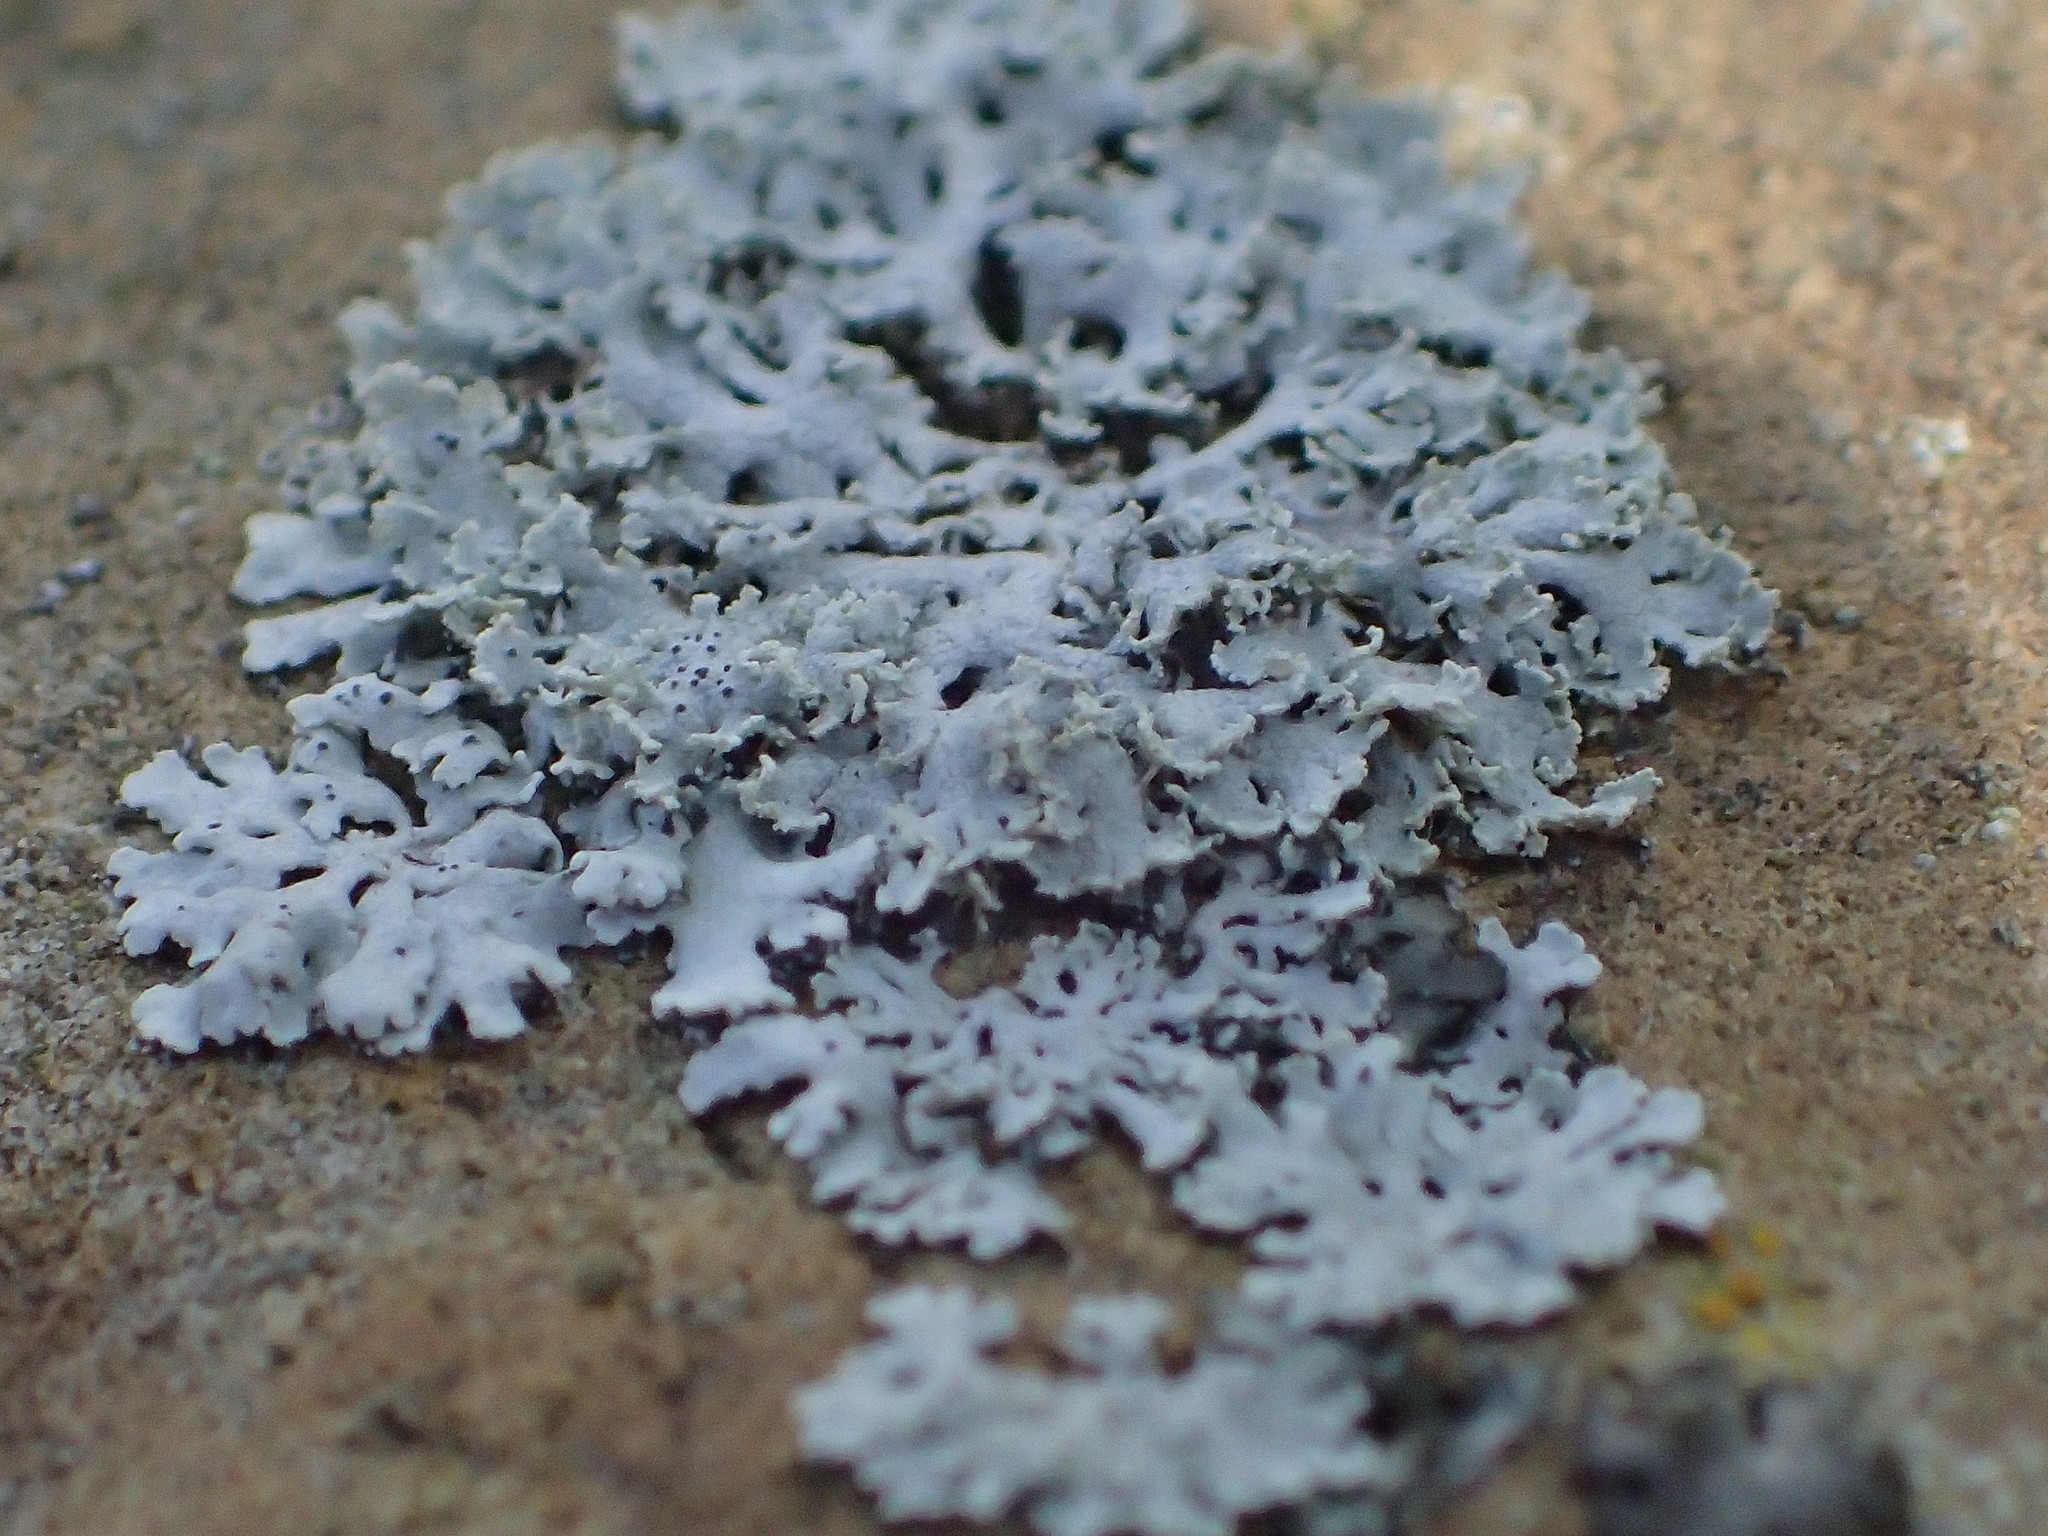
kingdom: Fungi
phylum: Ascomycota
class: Lecanoromycetes
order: Caliciales
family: Physciaceae
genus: Physcia
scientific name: Physcia millegrana
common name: Rosette lichen
